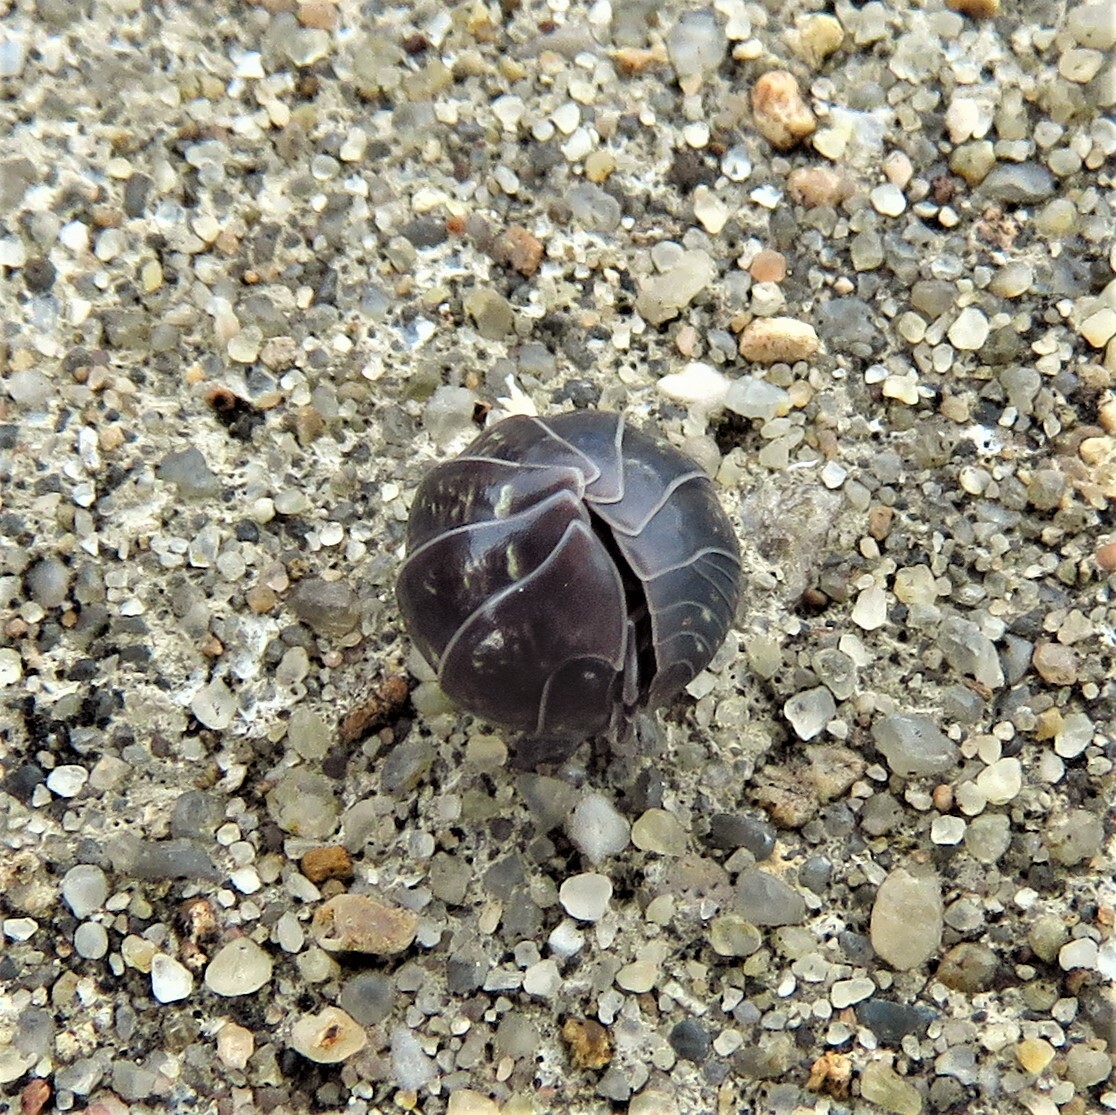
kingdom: Animalia
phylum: Arthropoda
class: Malacostraca
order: Isopoda
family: Armadillidiidae
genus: Armadillidium
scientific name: Armadillidium vulgare
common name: Common pill woodlouse
